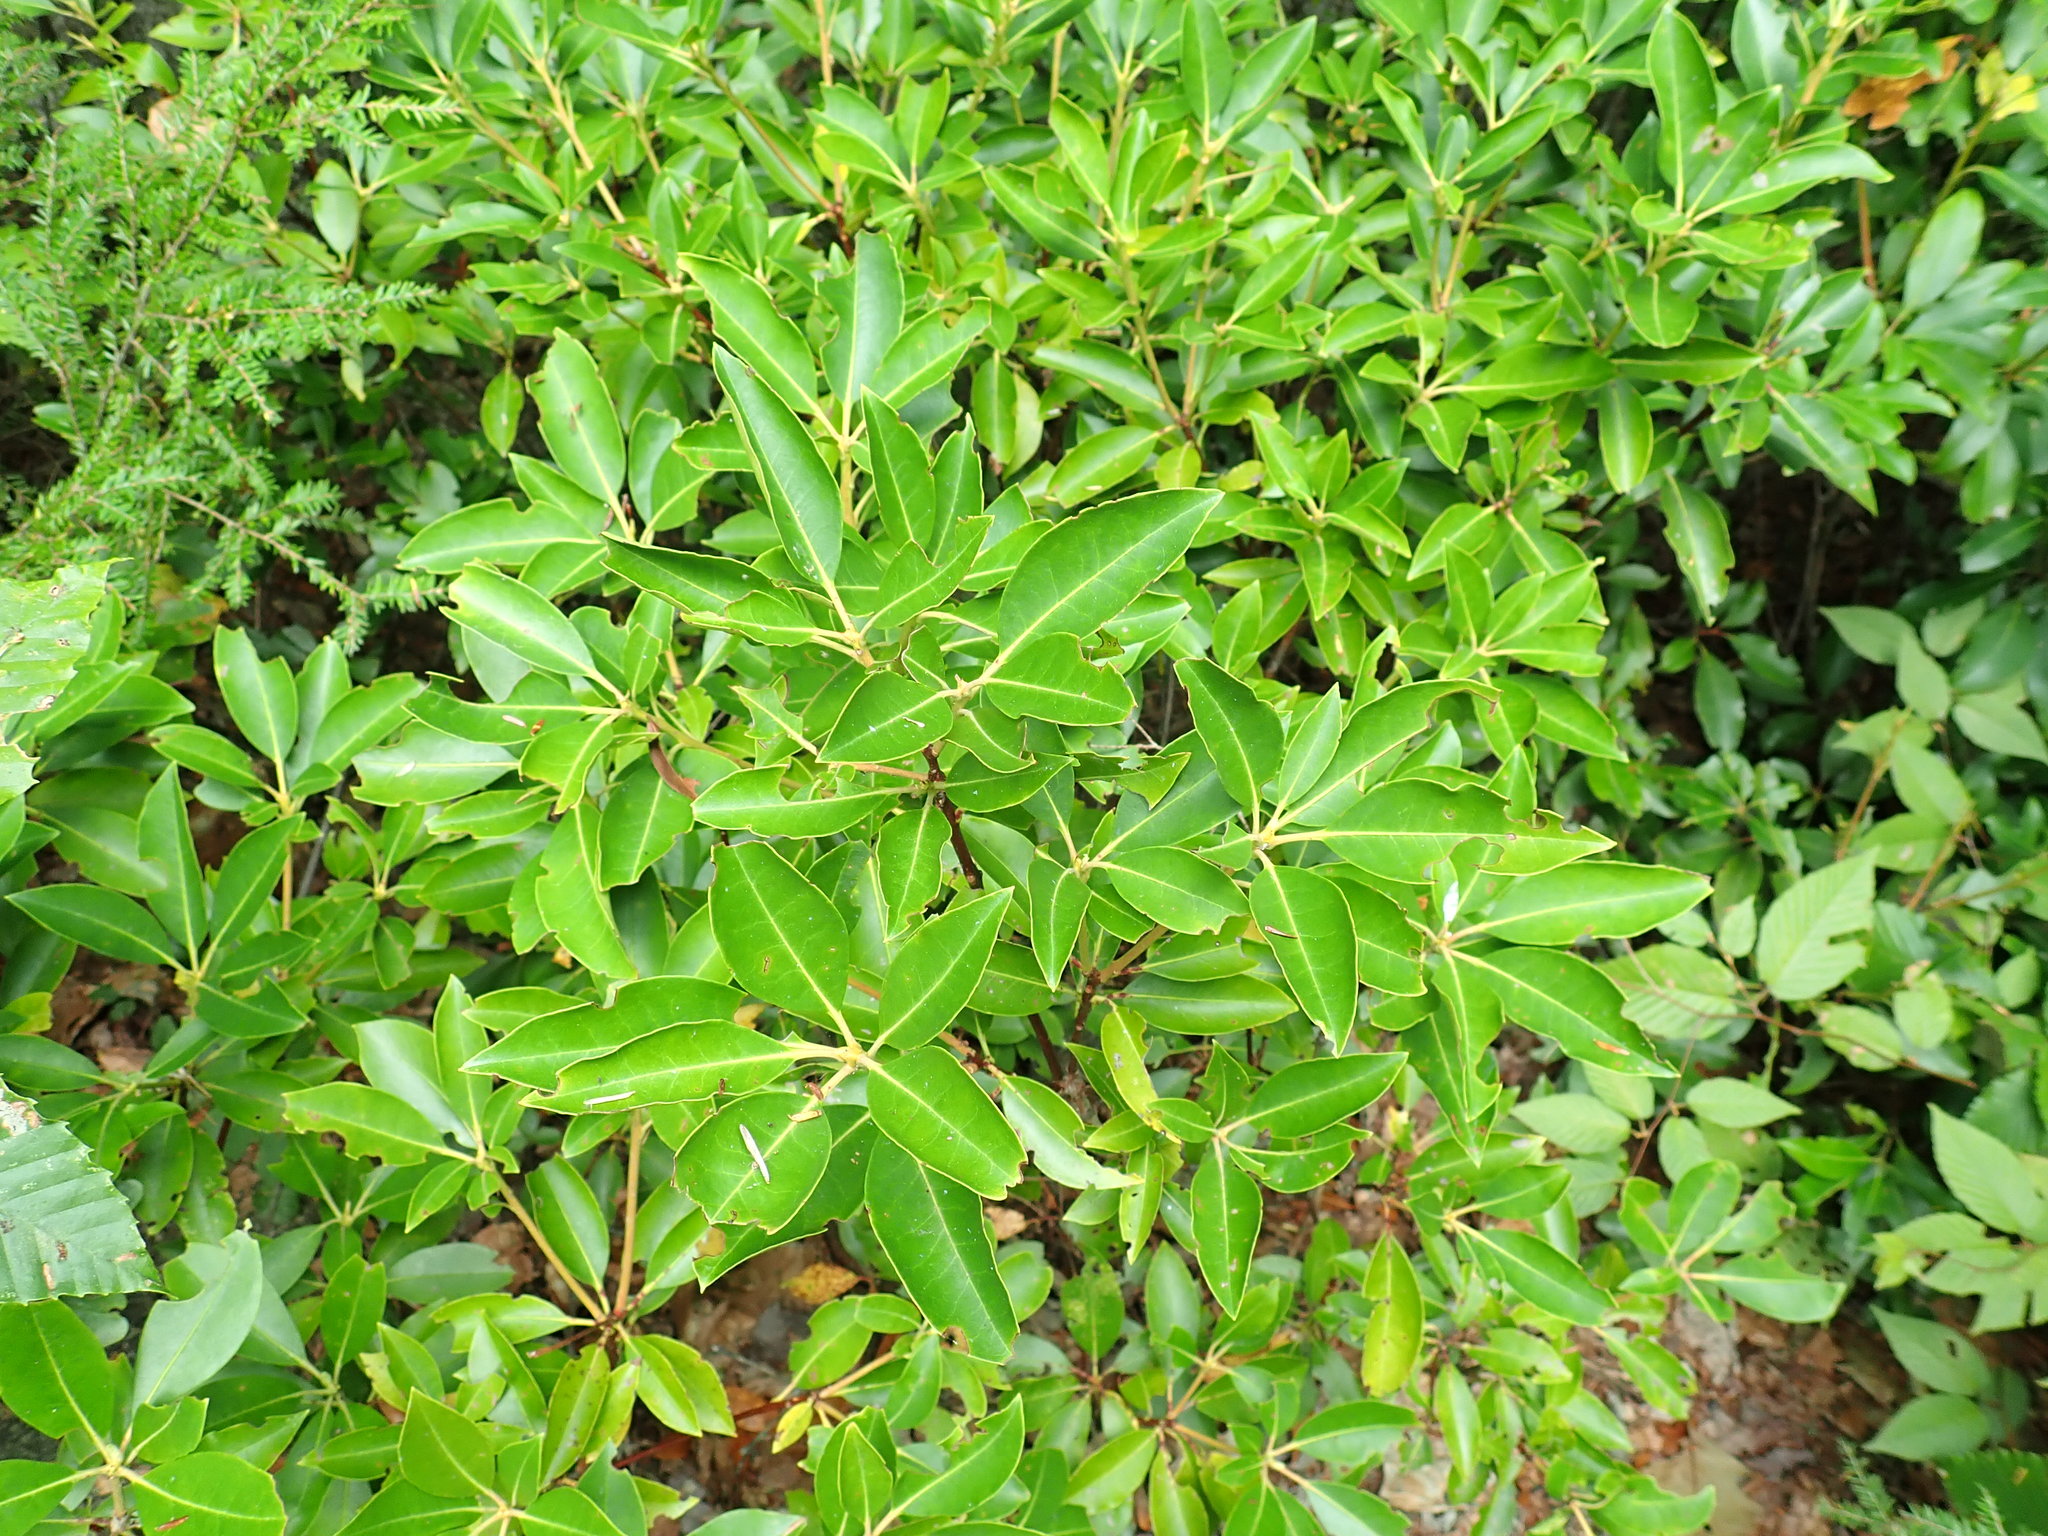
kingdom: Plantae
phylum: Tracheophyta
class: Magnoliopsida
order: Ericales
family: Ericaceae
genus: Kalmia
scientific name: Kalmia latifolia
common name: Mountain-laurel
